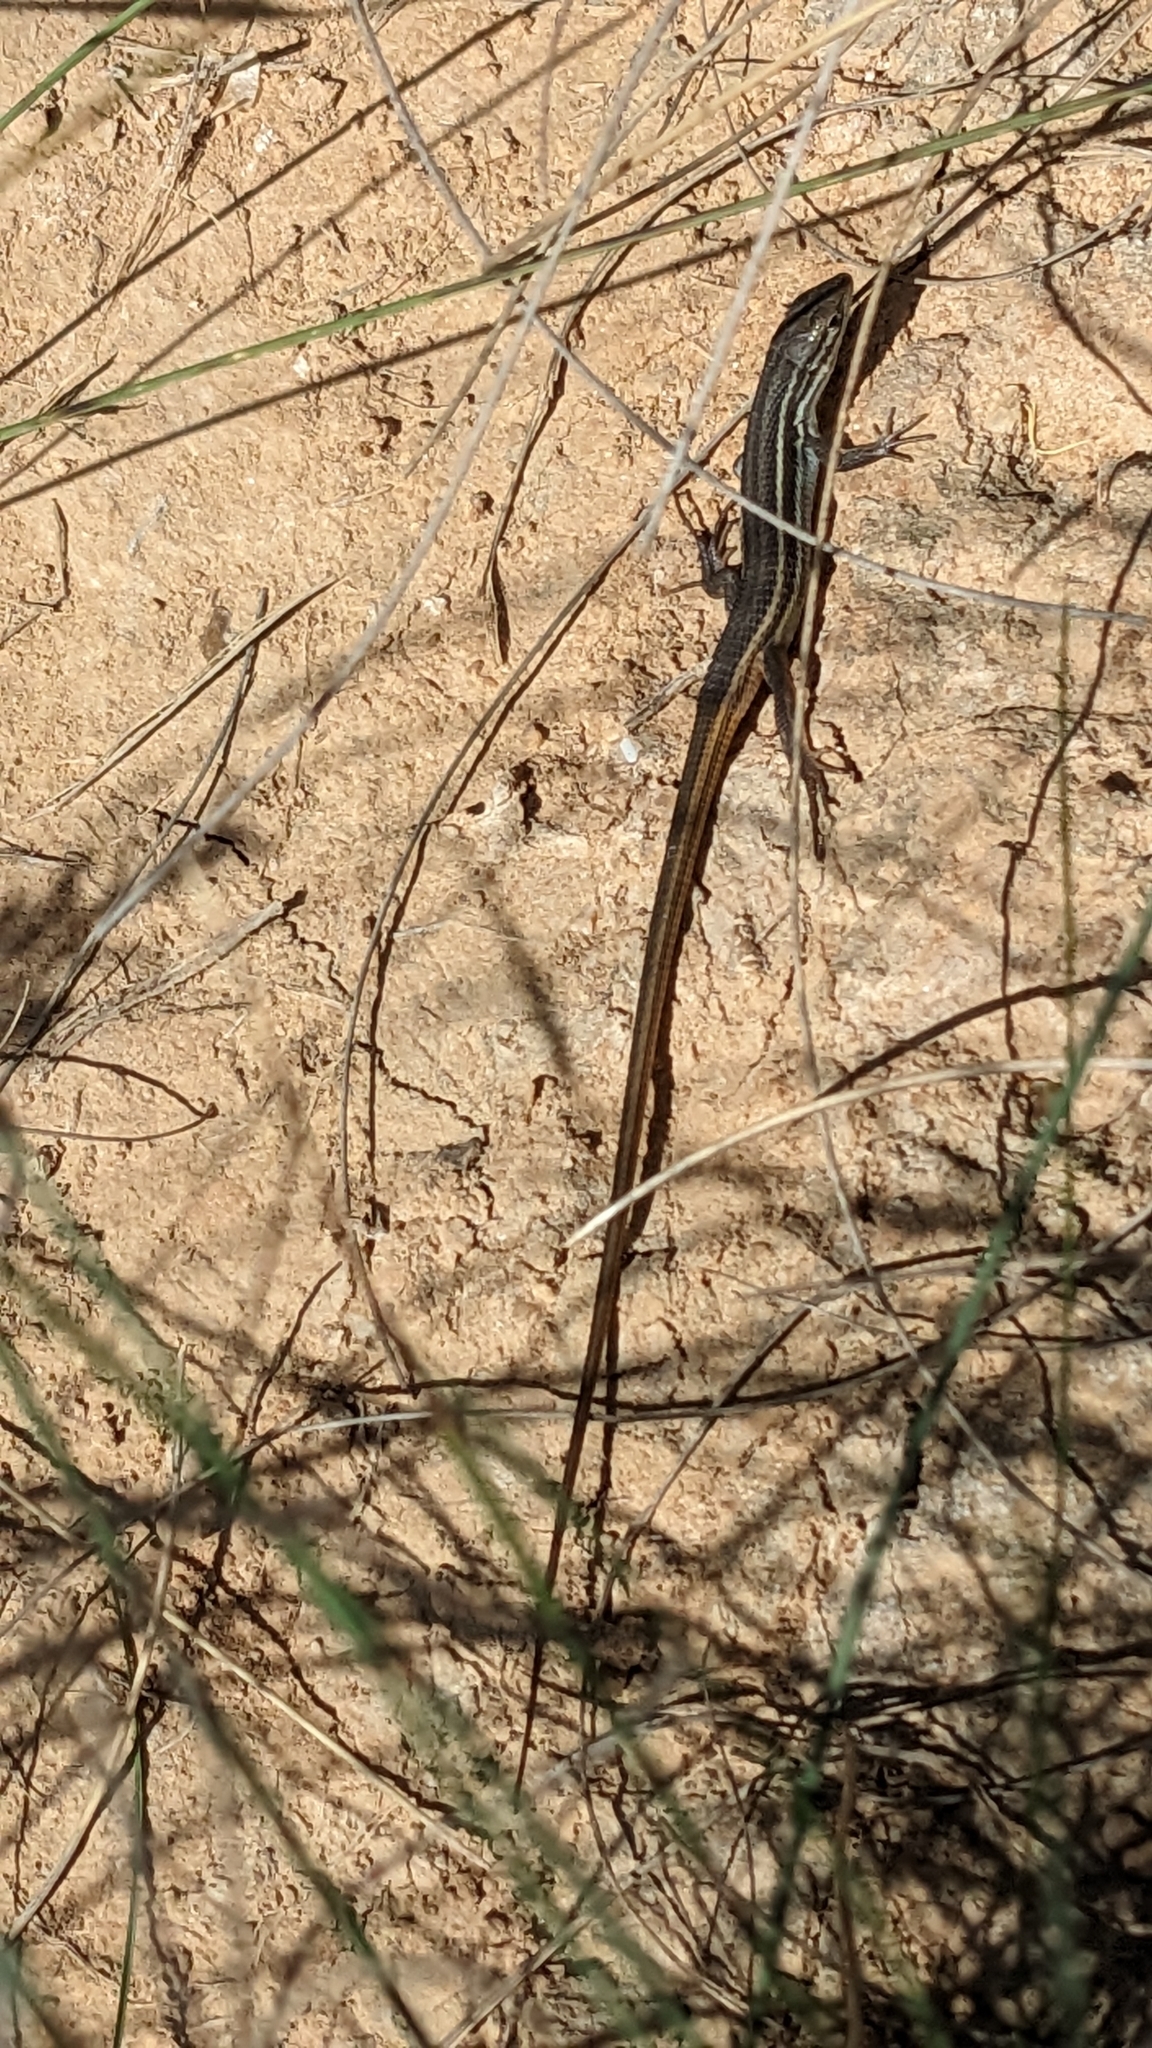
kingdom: Animalia
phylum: Chordata
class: Squamata
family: Lacertidae
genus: Psammodromus
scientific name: Psammodromus algirus
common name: Algerian psammodromus
